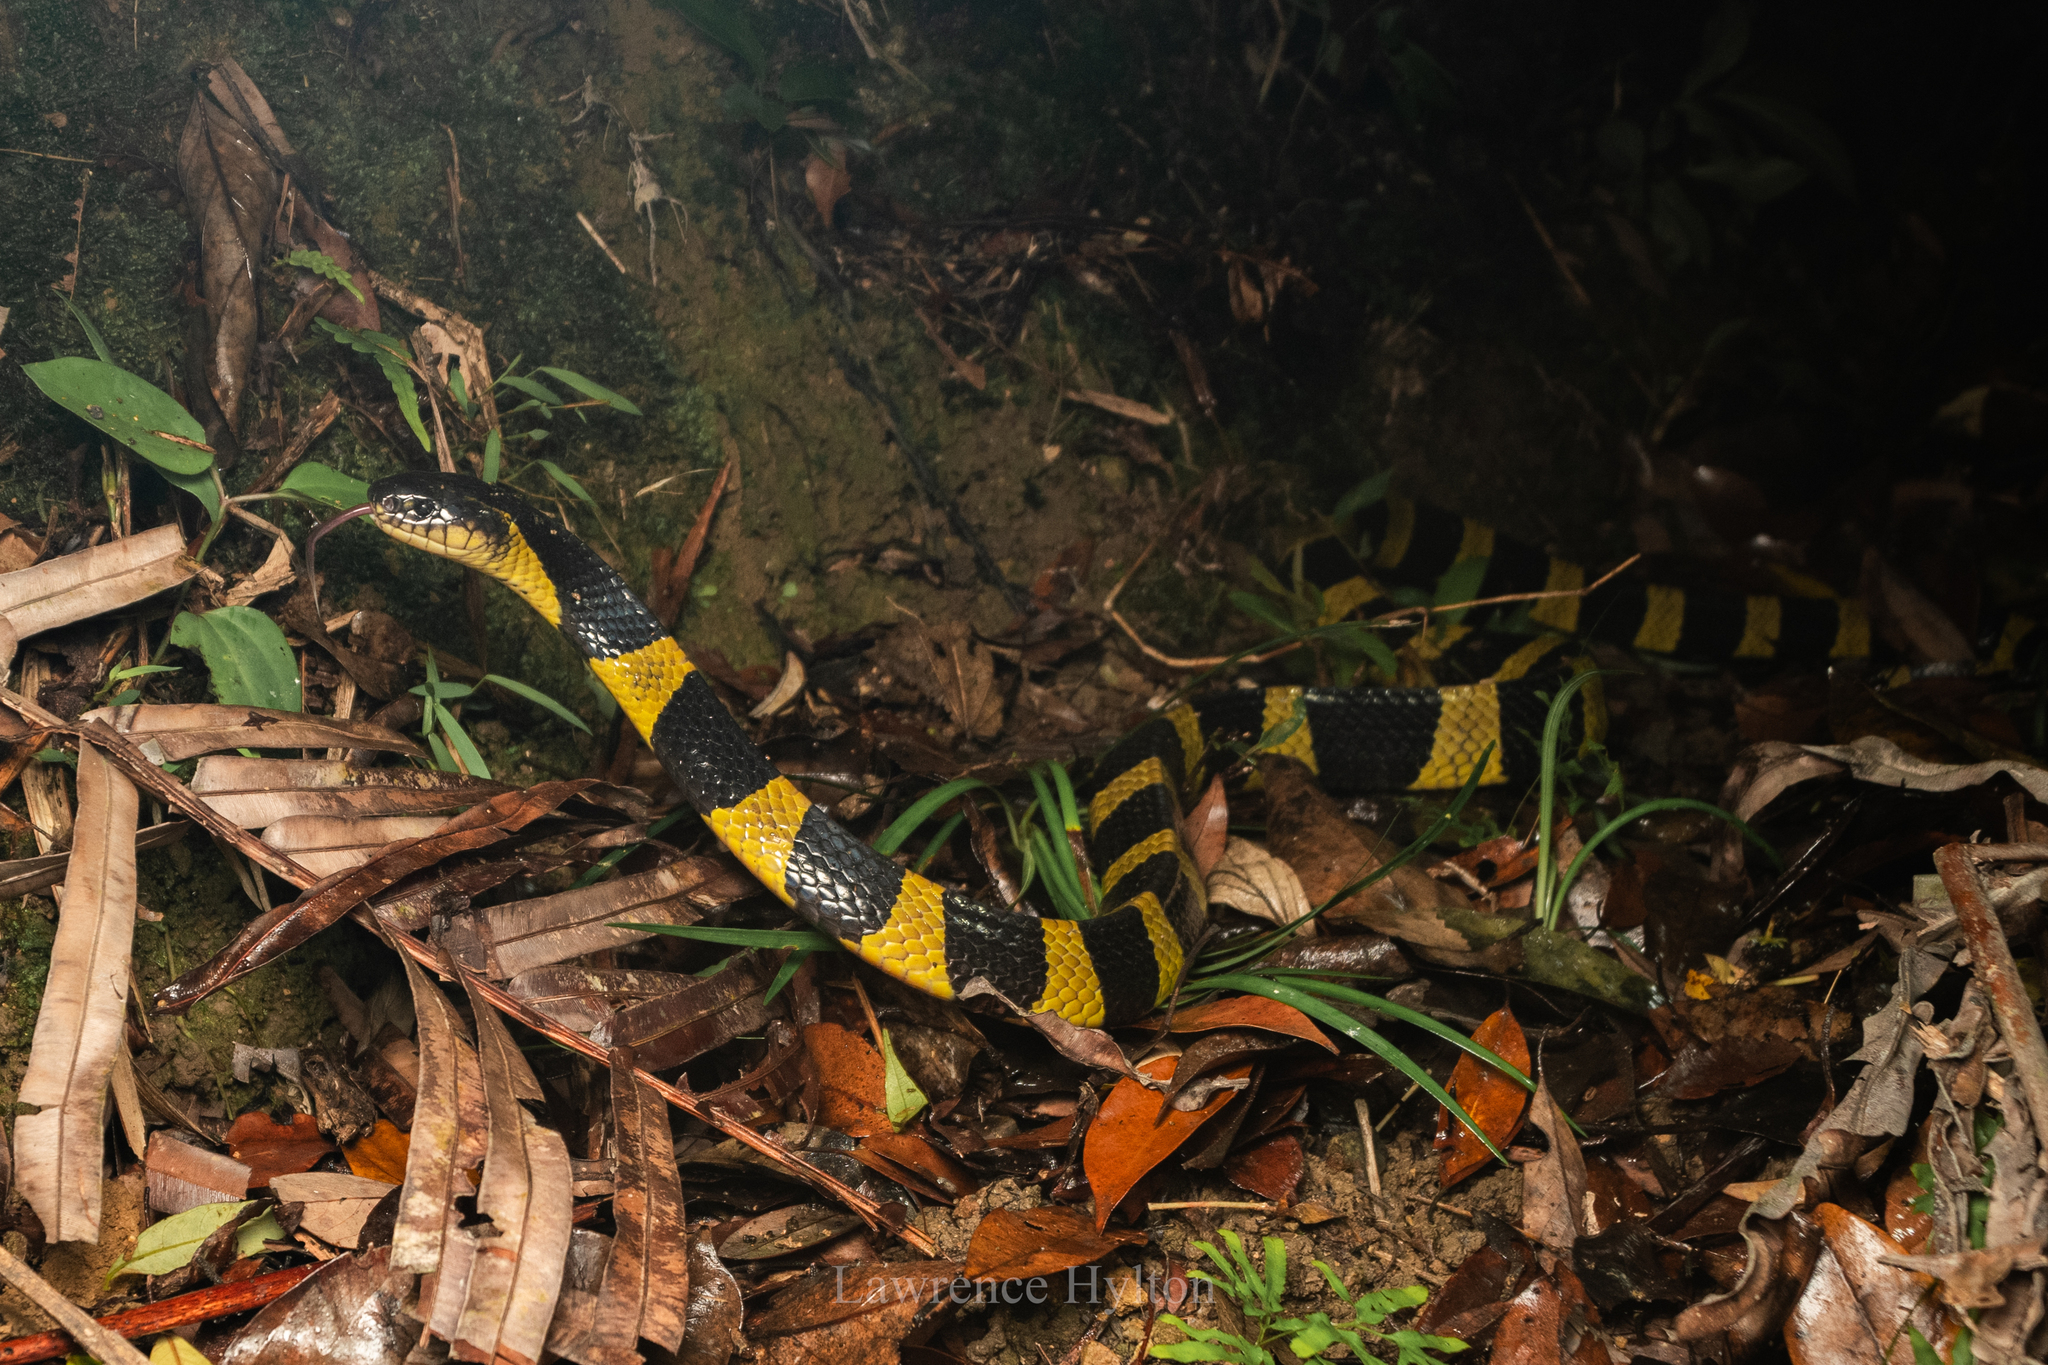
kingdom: Animalia
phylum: Chordata
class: Squamata
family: Elapidae
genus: Bungarus
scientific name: Bungarus fasciatus
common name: Banded krait
